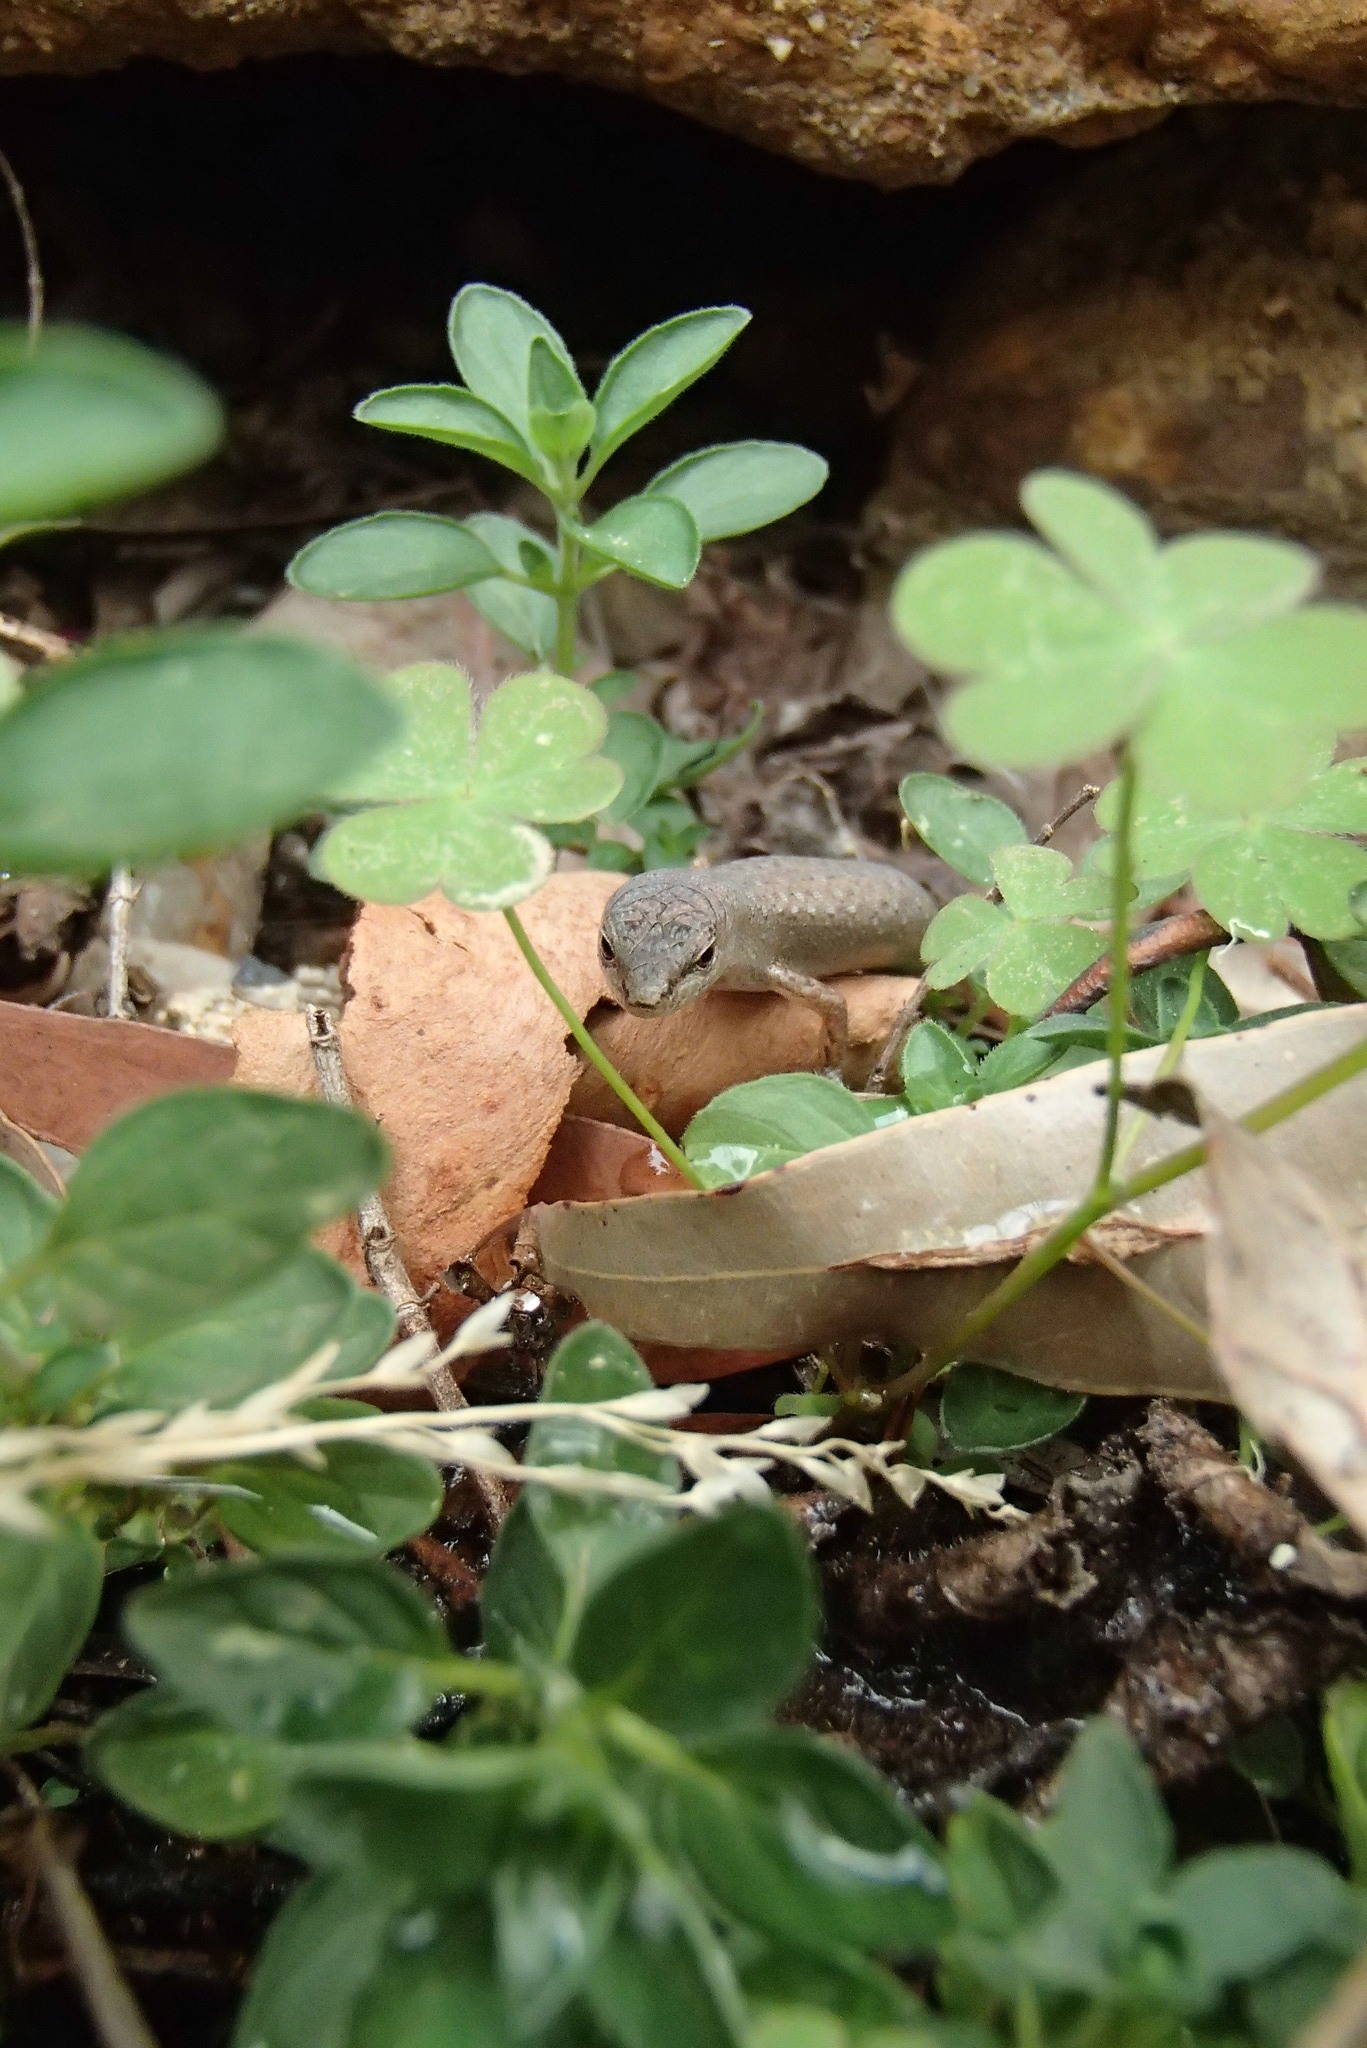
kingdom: Animalia
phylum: Chordata
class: Squamata
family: Scincidae
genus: Saproscincus
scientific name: Saproscincus mustelinus
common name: Southern weasel skink
